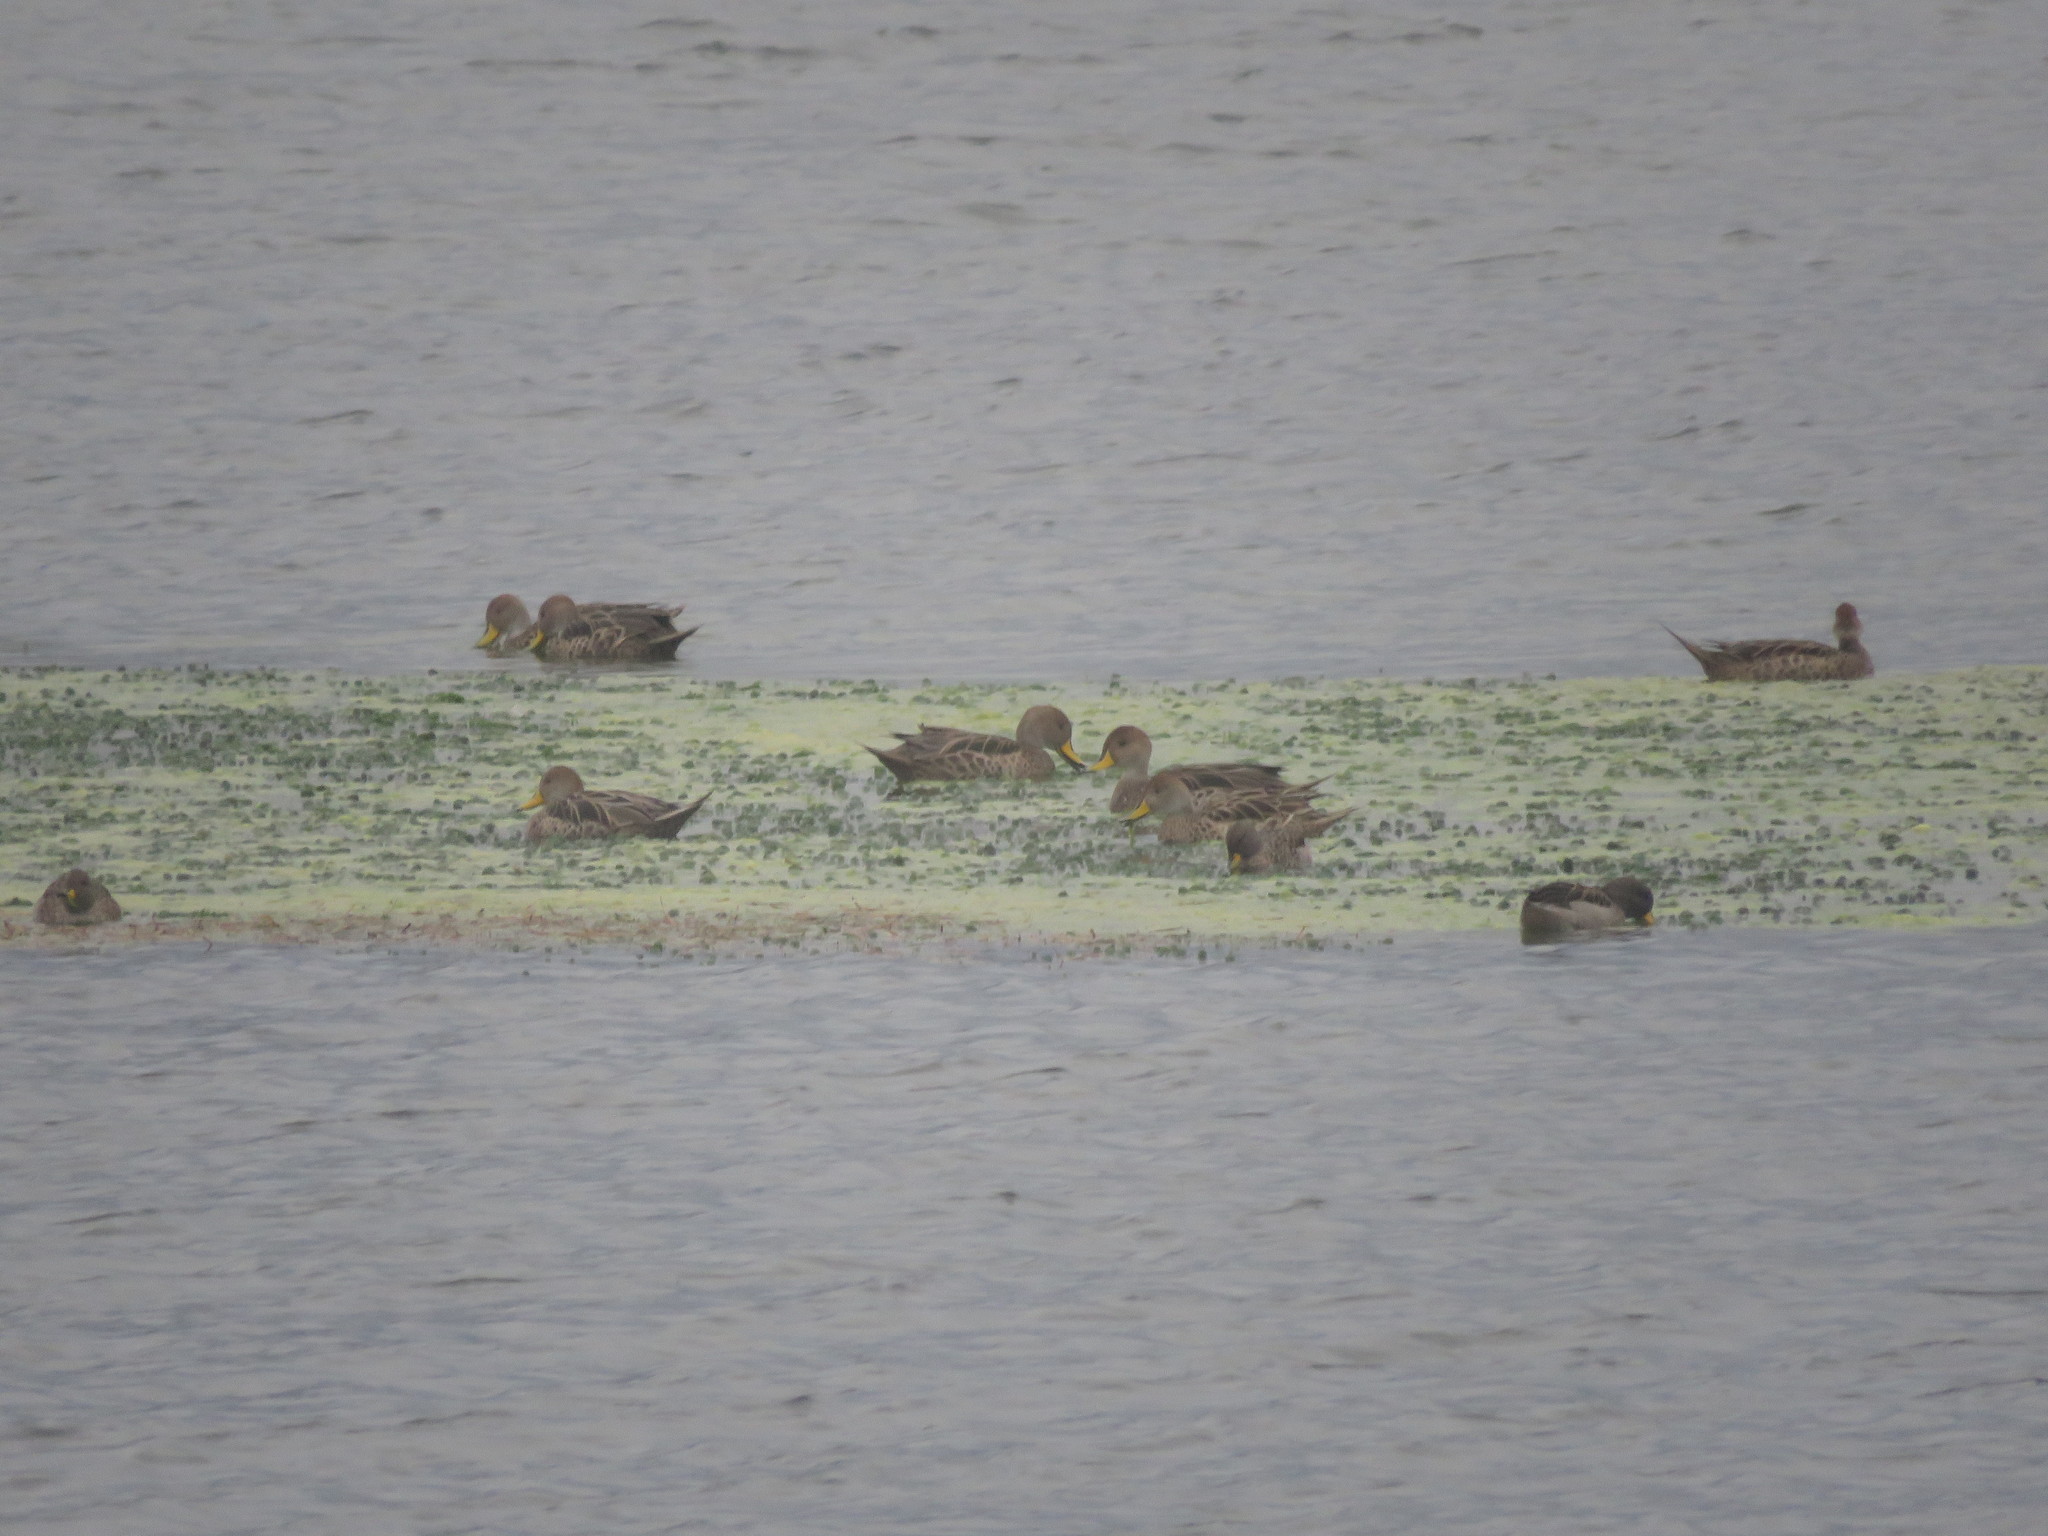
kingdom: Animalia
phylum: Chordata
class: Aves
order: Anseriformes
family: Anatidae
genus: Anas
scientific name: Anas georgica
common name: Yellow-billed pintail
